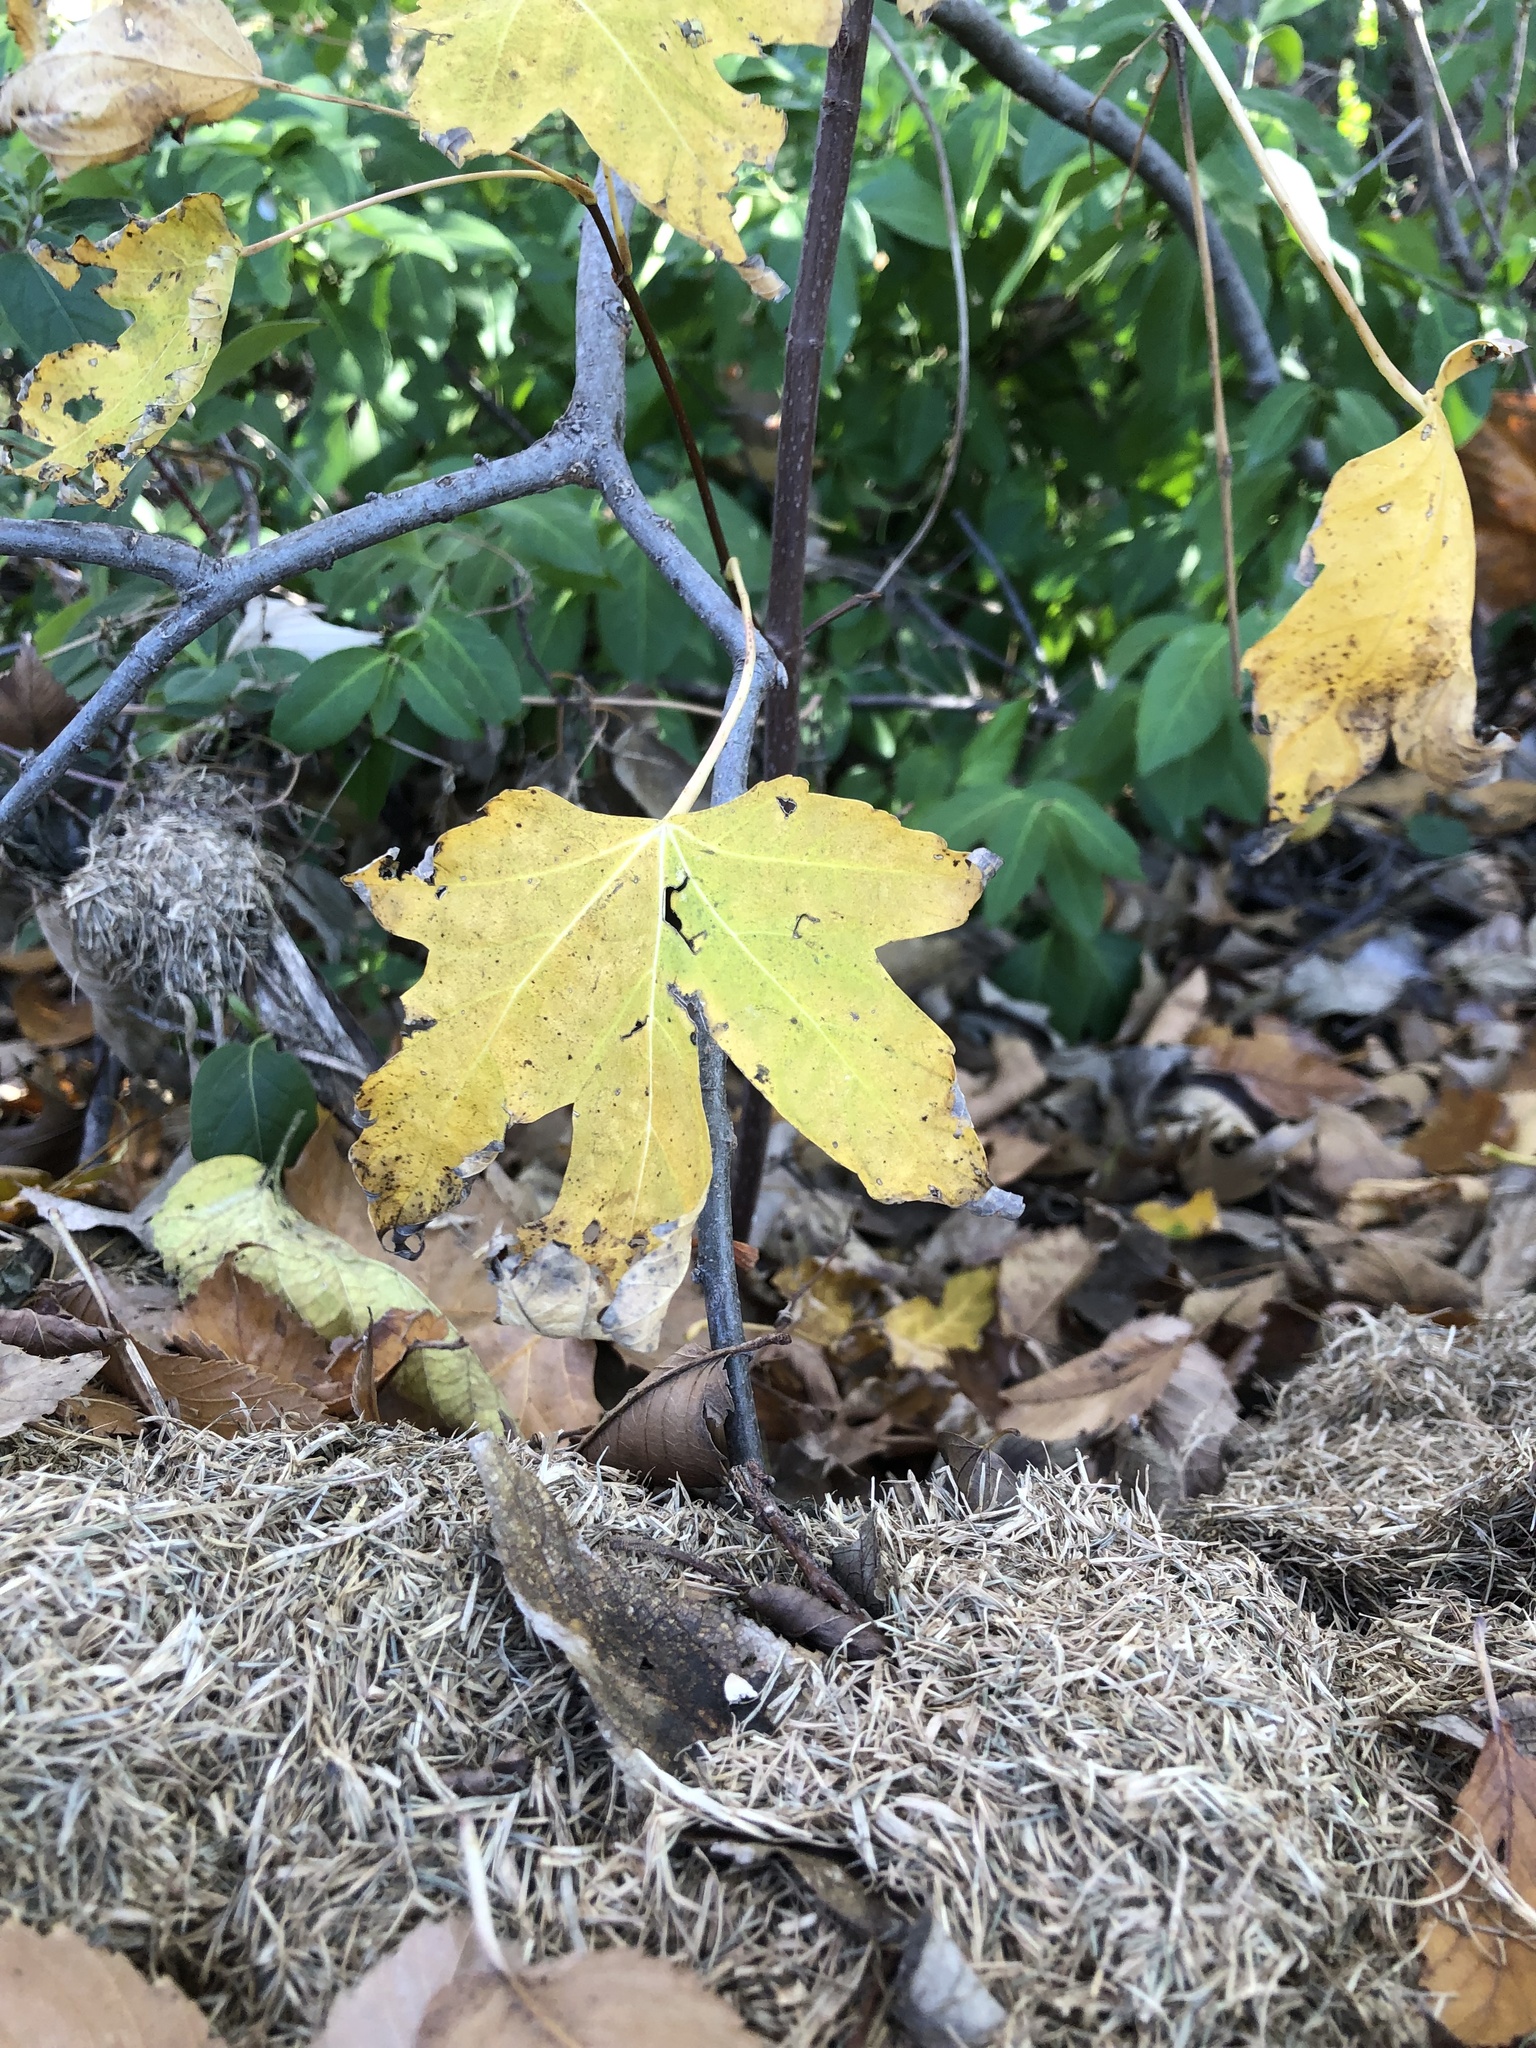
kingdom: Plantae
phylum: Tracheophyta
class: Magnoliopsida
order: Saxifragales
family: Altingiaceae
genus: Liquidambar
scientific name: Liquidambar styraciflua
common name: Sweet gum
